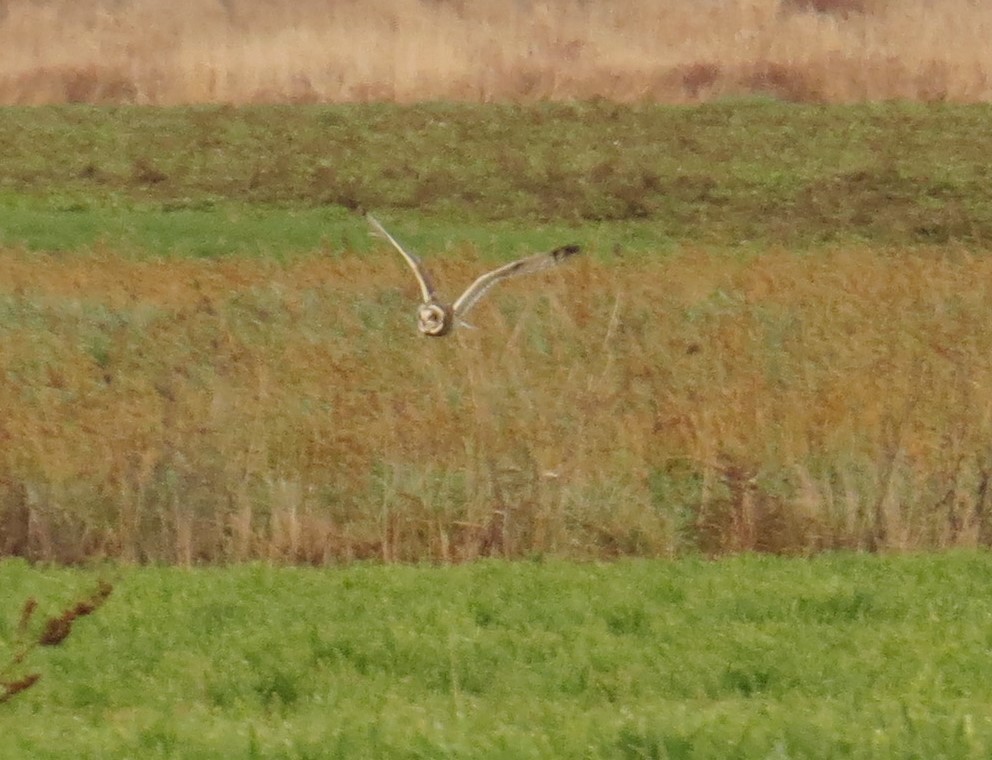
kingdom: Animalia
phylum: Chordata
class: Aves
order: Strigiformes
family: Strigidae
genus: Asio
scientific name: Asio flammeus
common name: Short-eared owl
